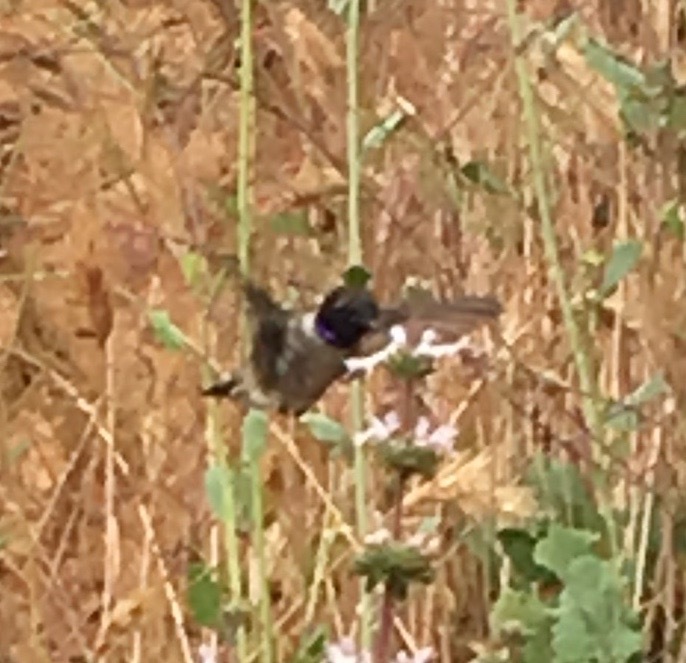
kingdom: Animalia
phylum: Chordata
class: Aves
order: Apodiformes
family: Trochilidae
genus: Archilochus
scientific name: Archilochus alexandri
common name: Black-chinned hummingbird
